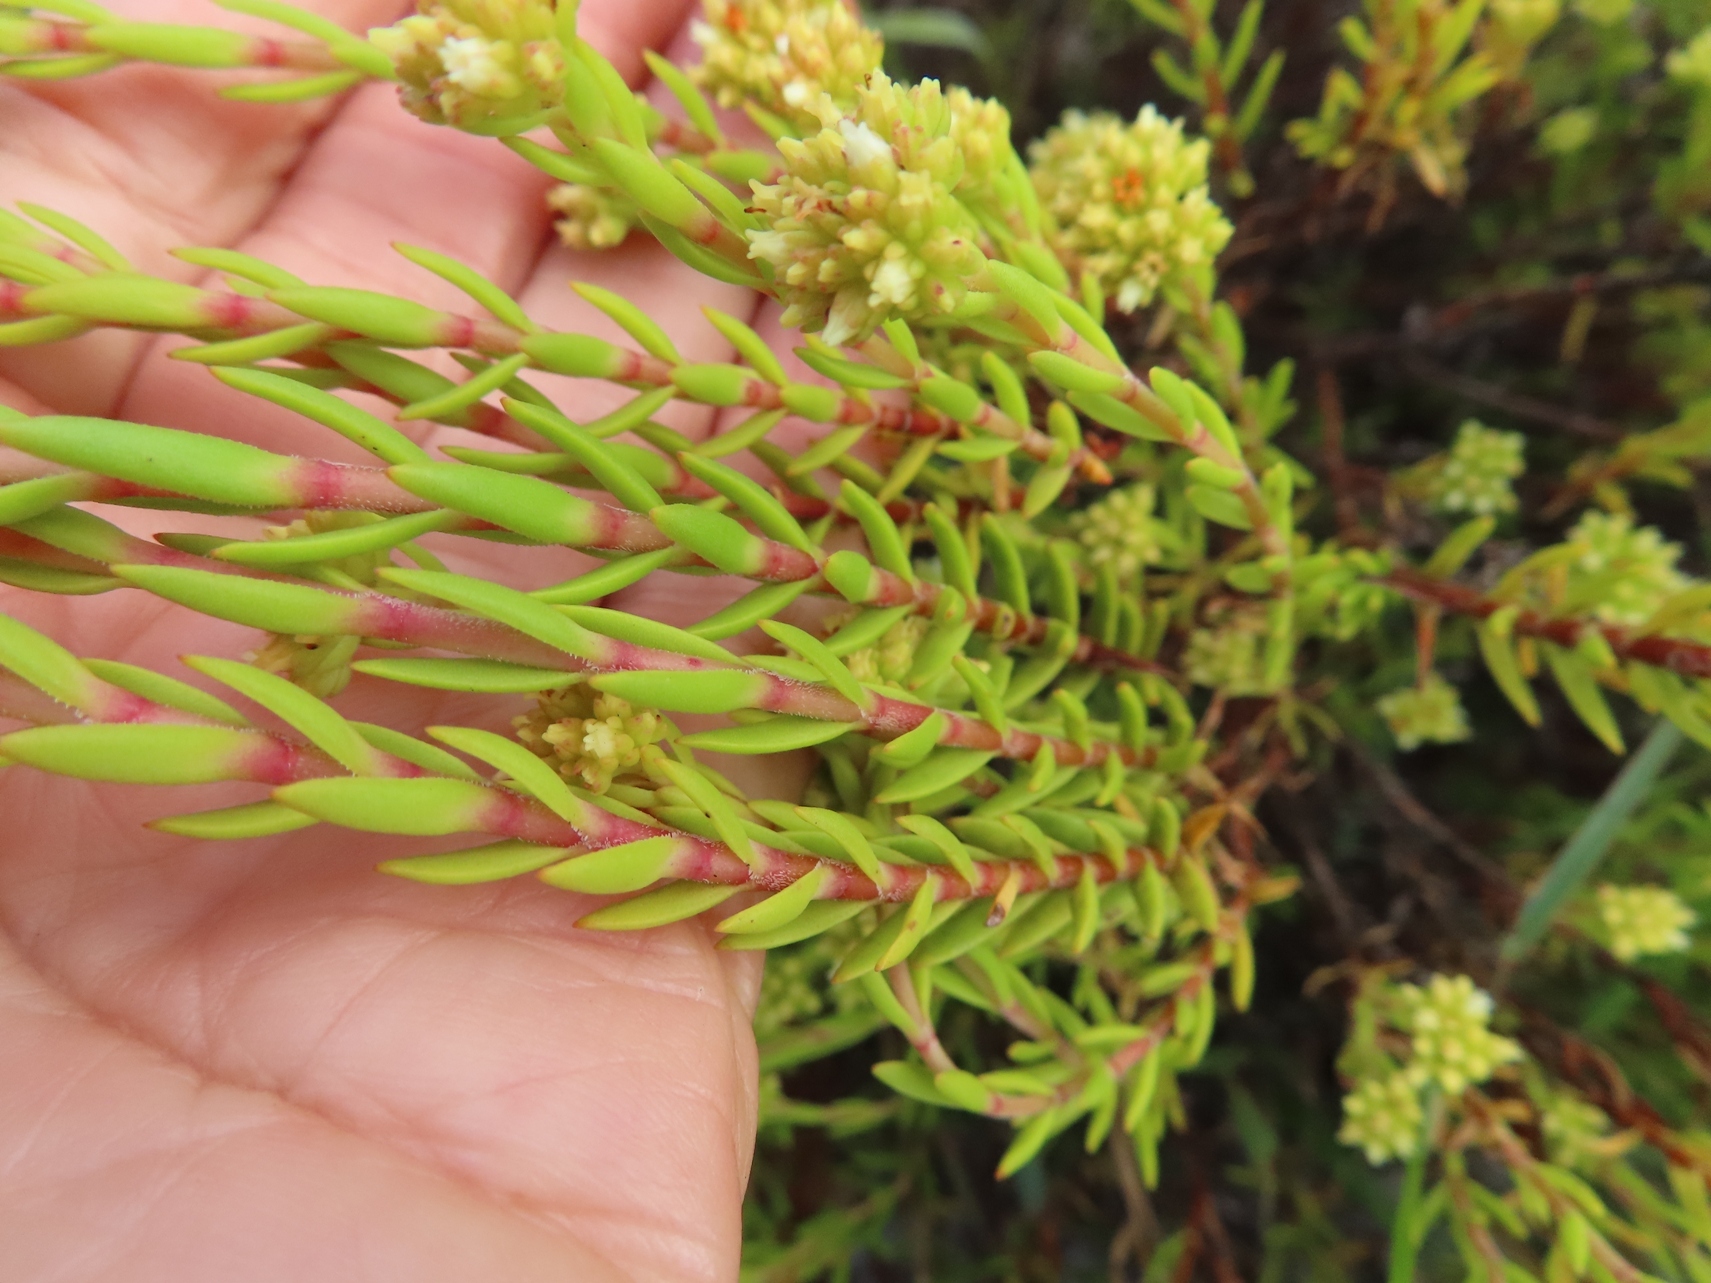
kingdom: Plantae
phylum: Tracheophyta
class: Magnoliopsida
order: Saxifragales
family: Crassulaceae
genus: Crassula
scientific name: Crassula subulata
